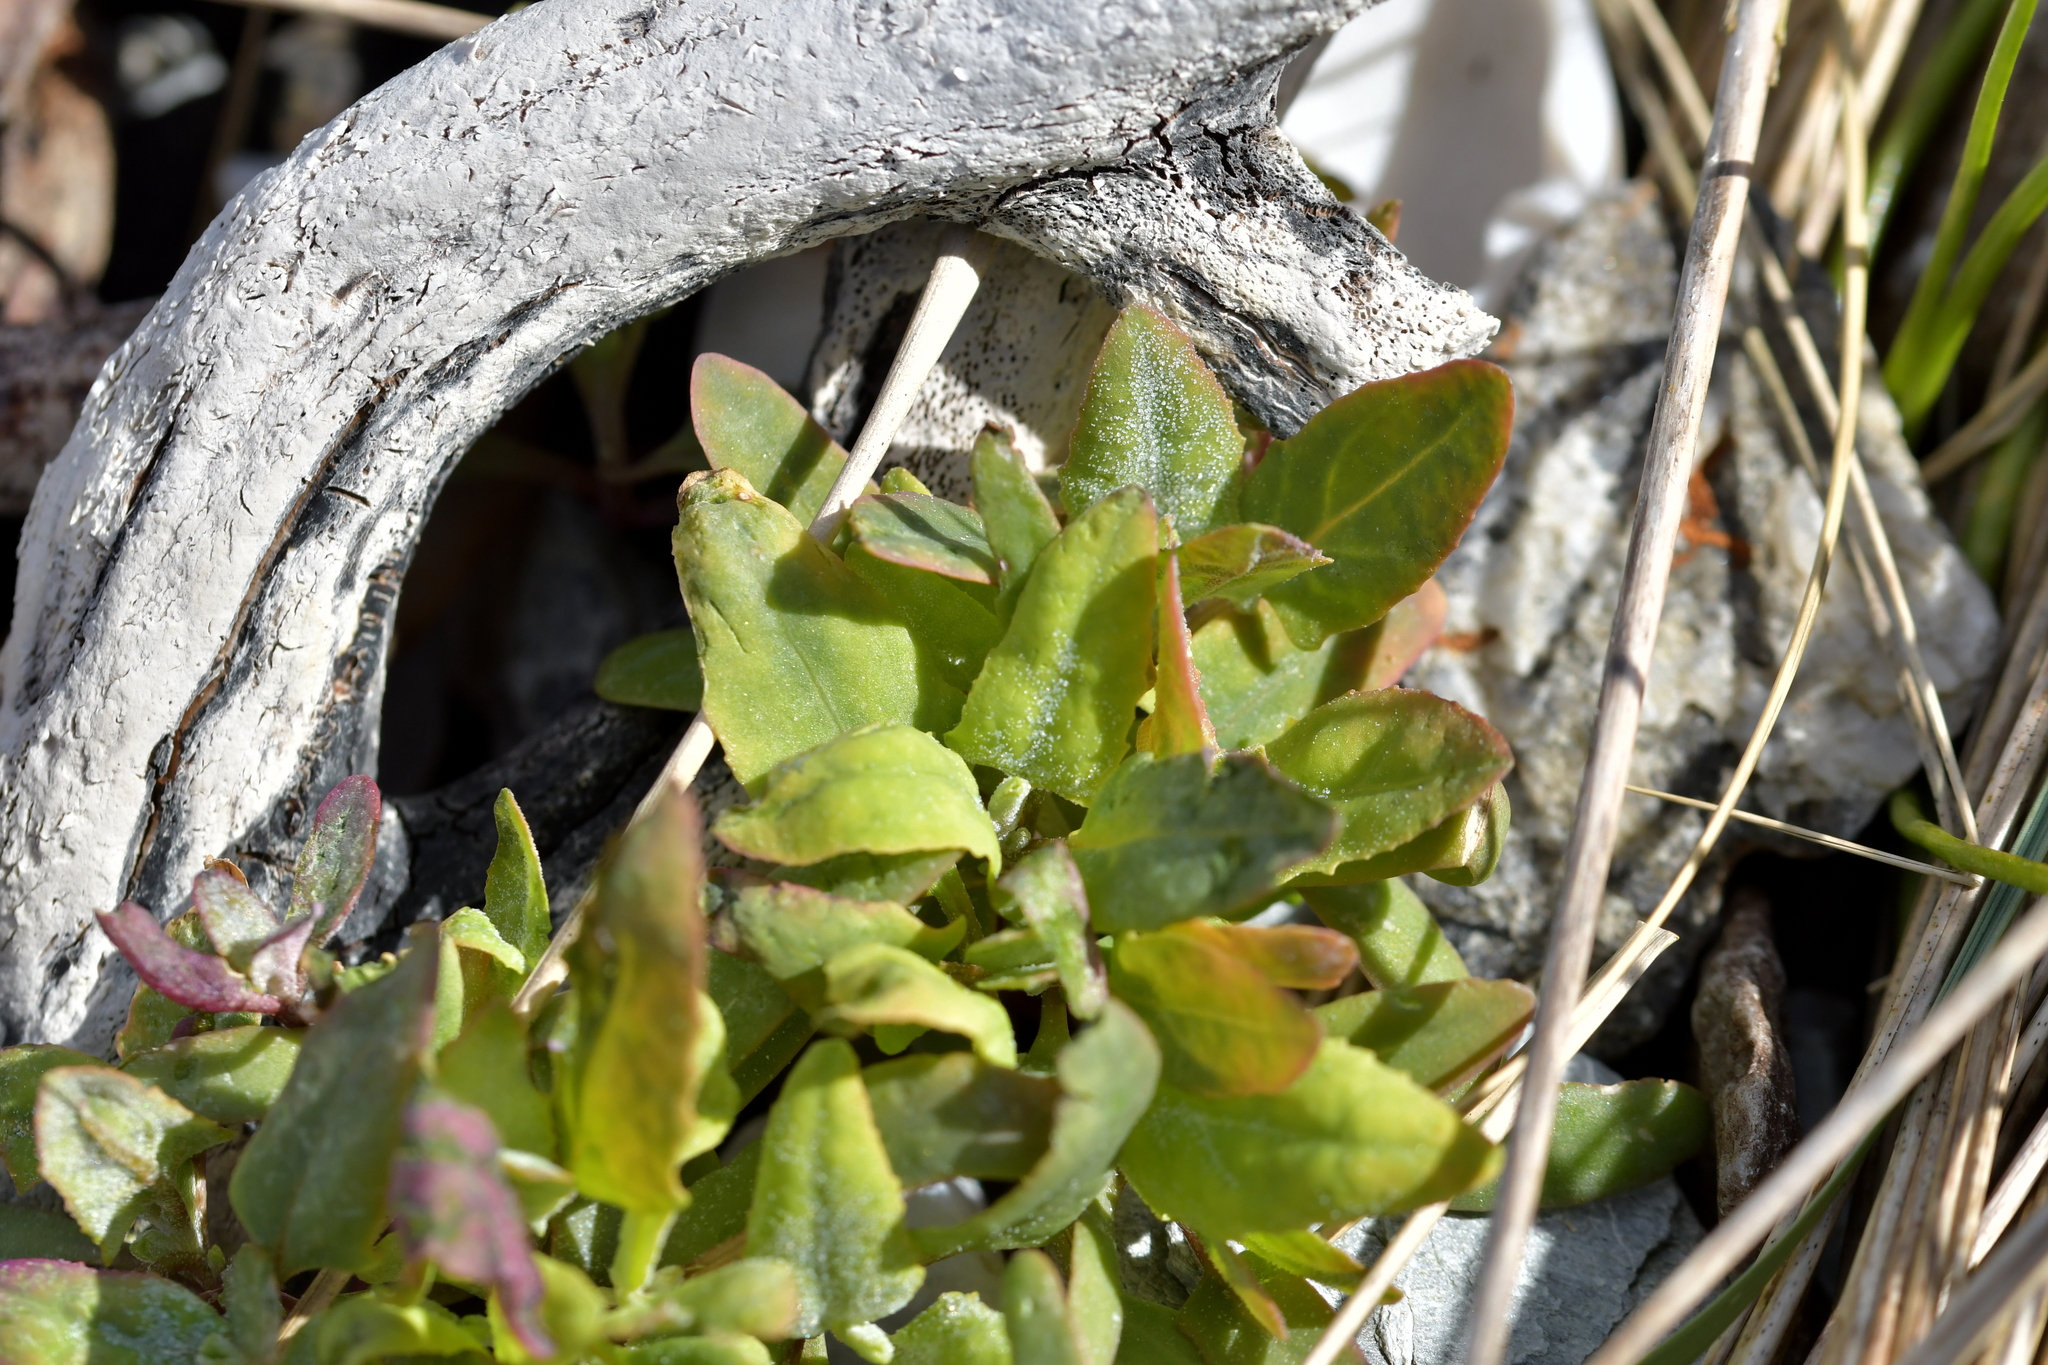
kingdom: Plantae
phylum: Tracheophyta
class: Magnoliopsida
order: Caryophyllales
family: Amaranthaceae
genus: Atriplex
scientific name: Atriplex prostrata
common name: Spear-leaved orache
